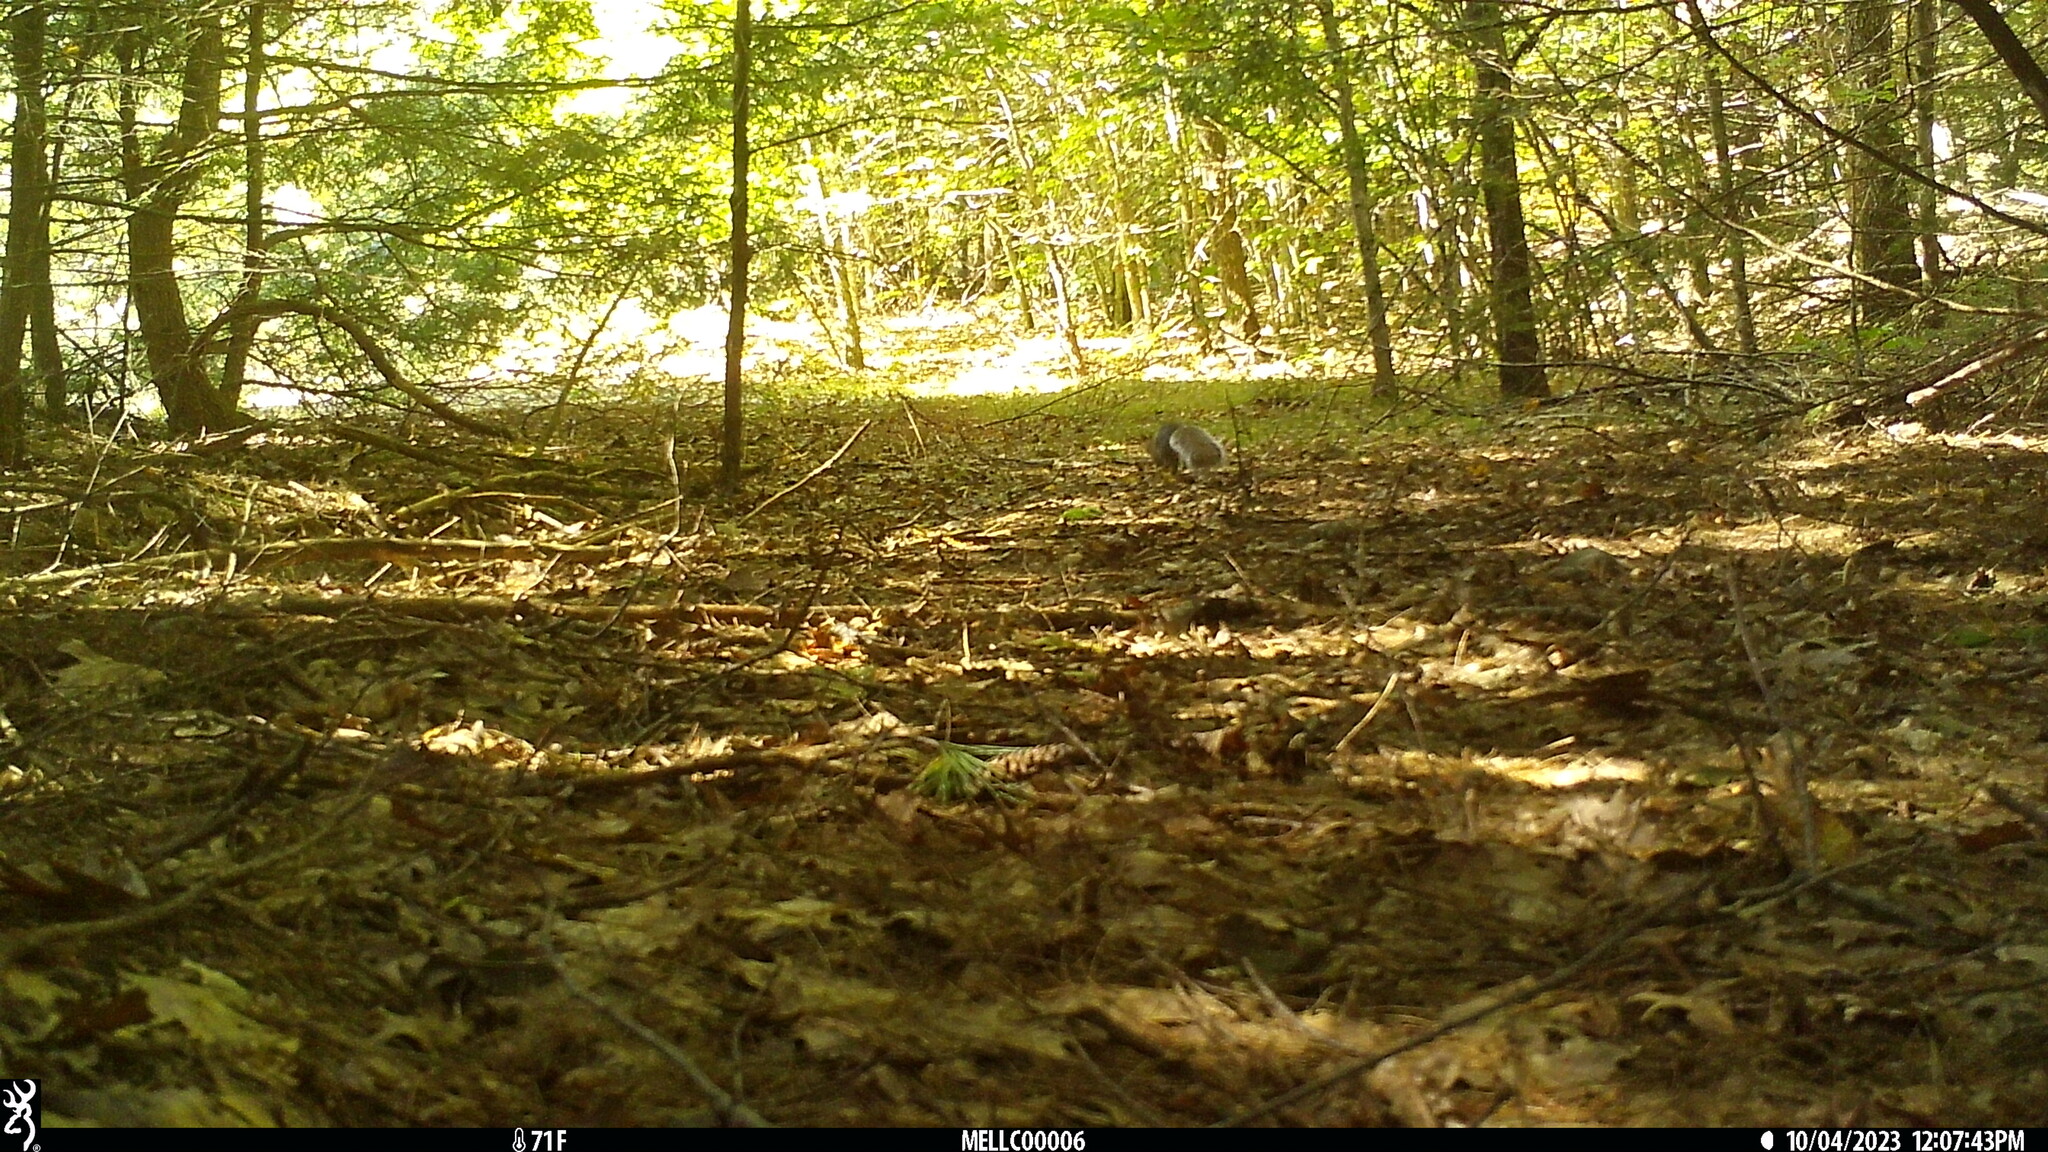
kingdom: Animalia
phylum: Chordata
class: Mammalia
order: Rodentia
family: Sciuridae
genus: Sciurus
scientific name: Sciurus carolinensis
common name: Eastern gray squirrel
